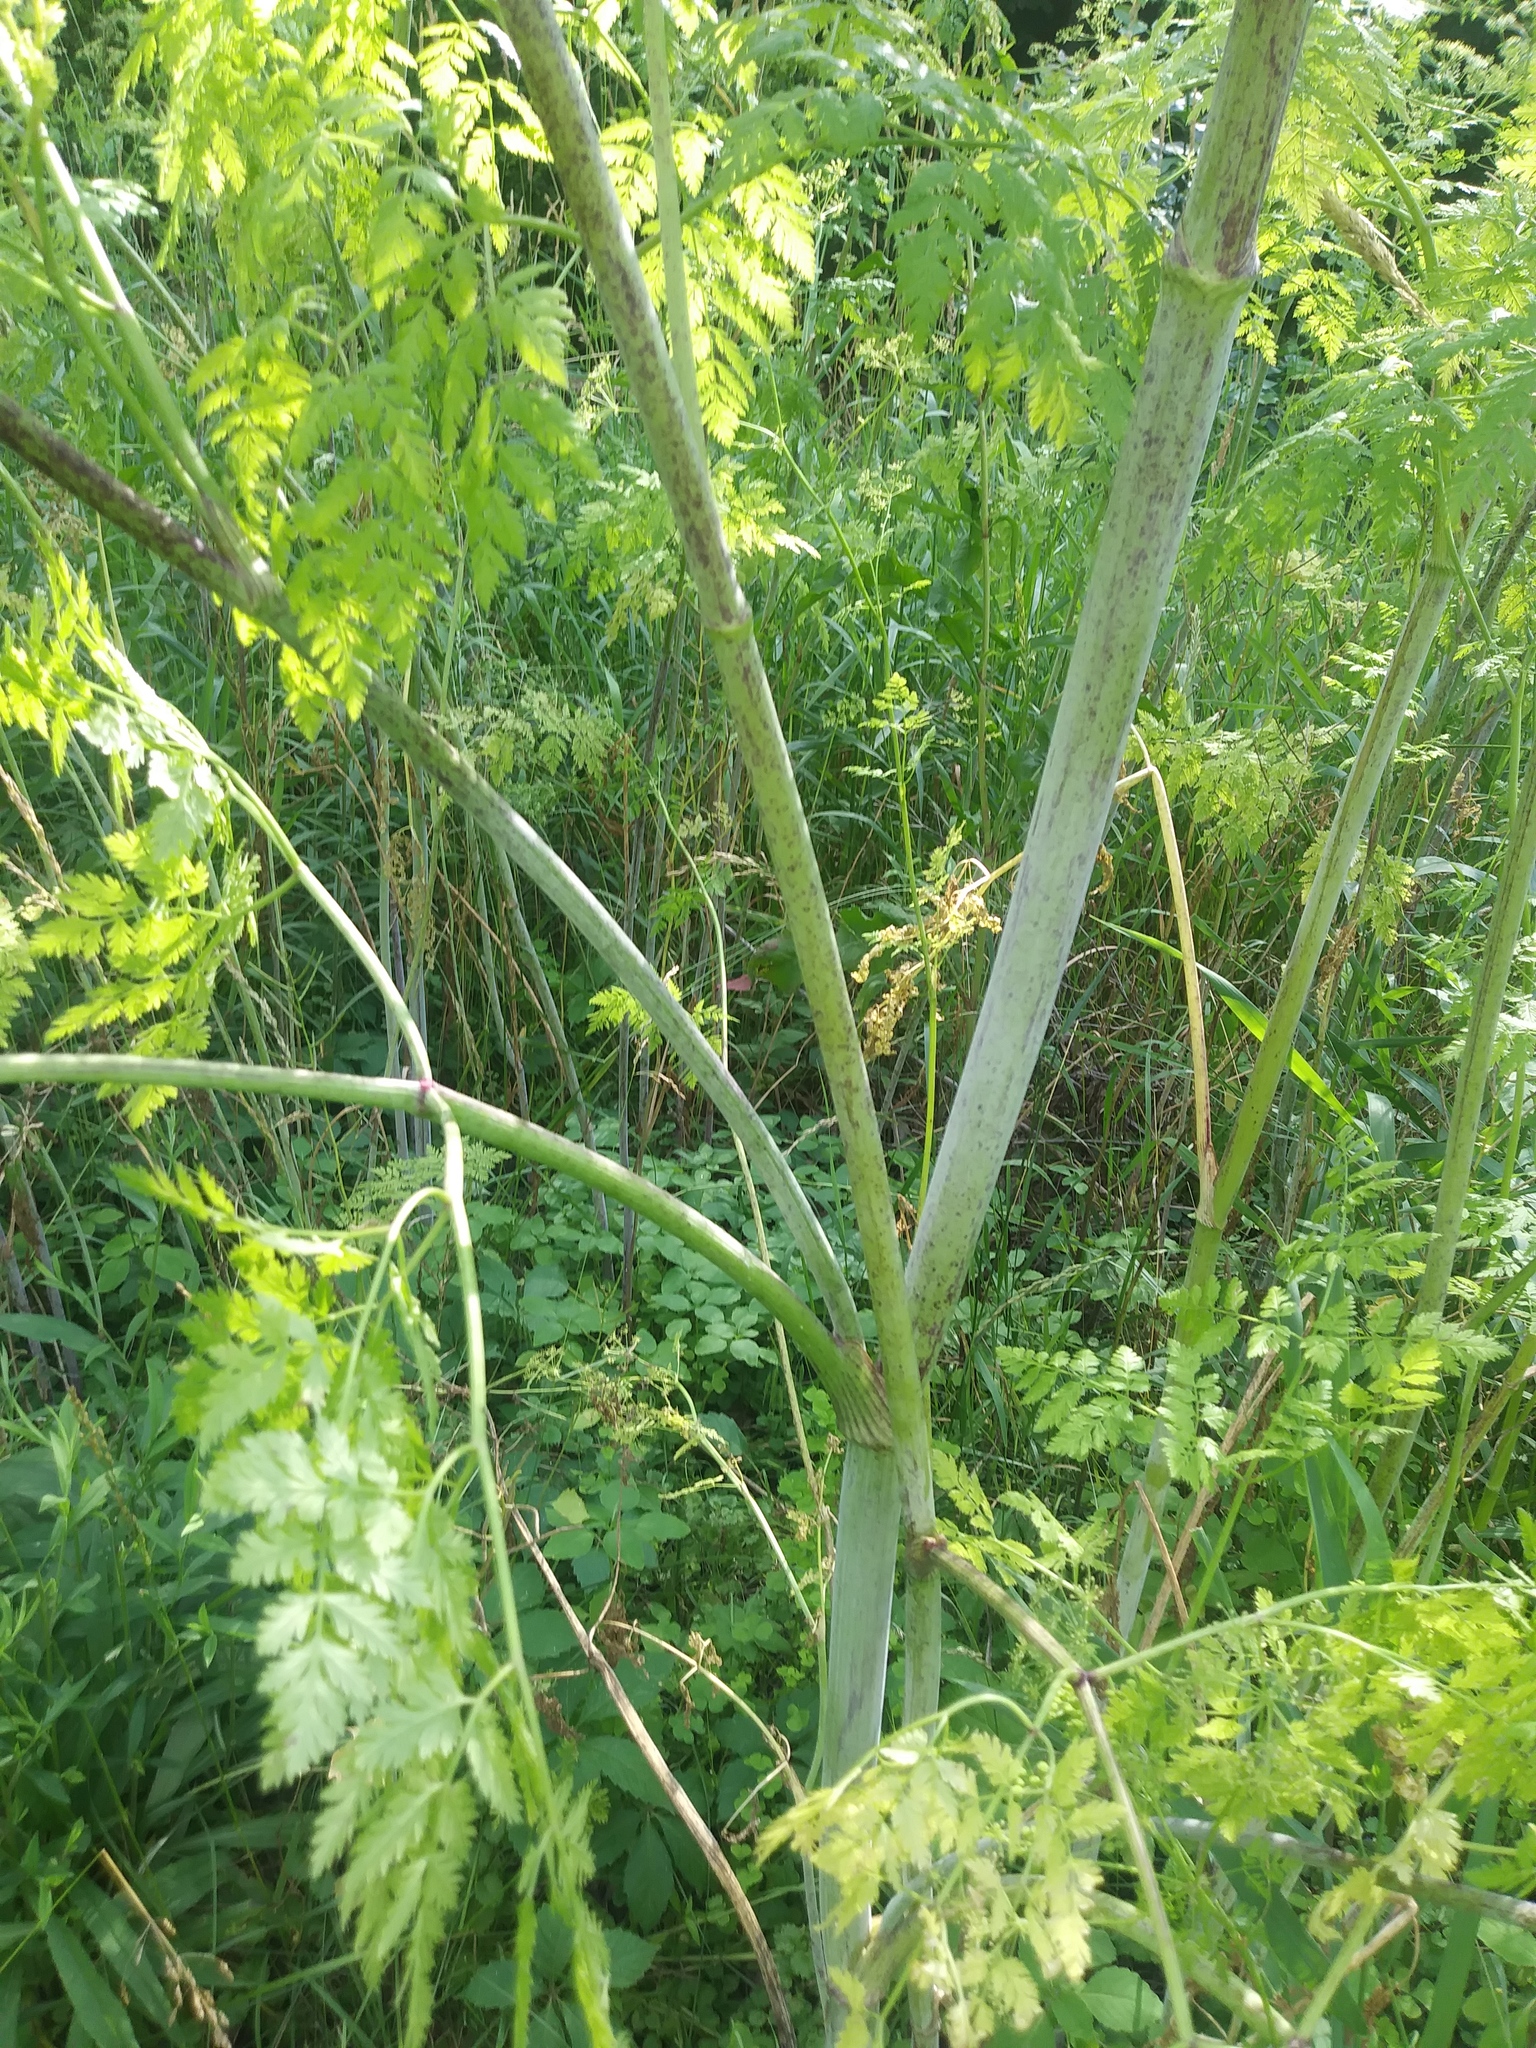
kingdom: Plantae
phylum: Tracheophyta
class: Magnoliopsida
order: Apiales
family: Apiaceae
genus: Conium
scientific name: Conium maculatum
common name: Hemlock
